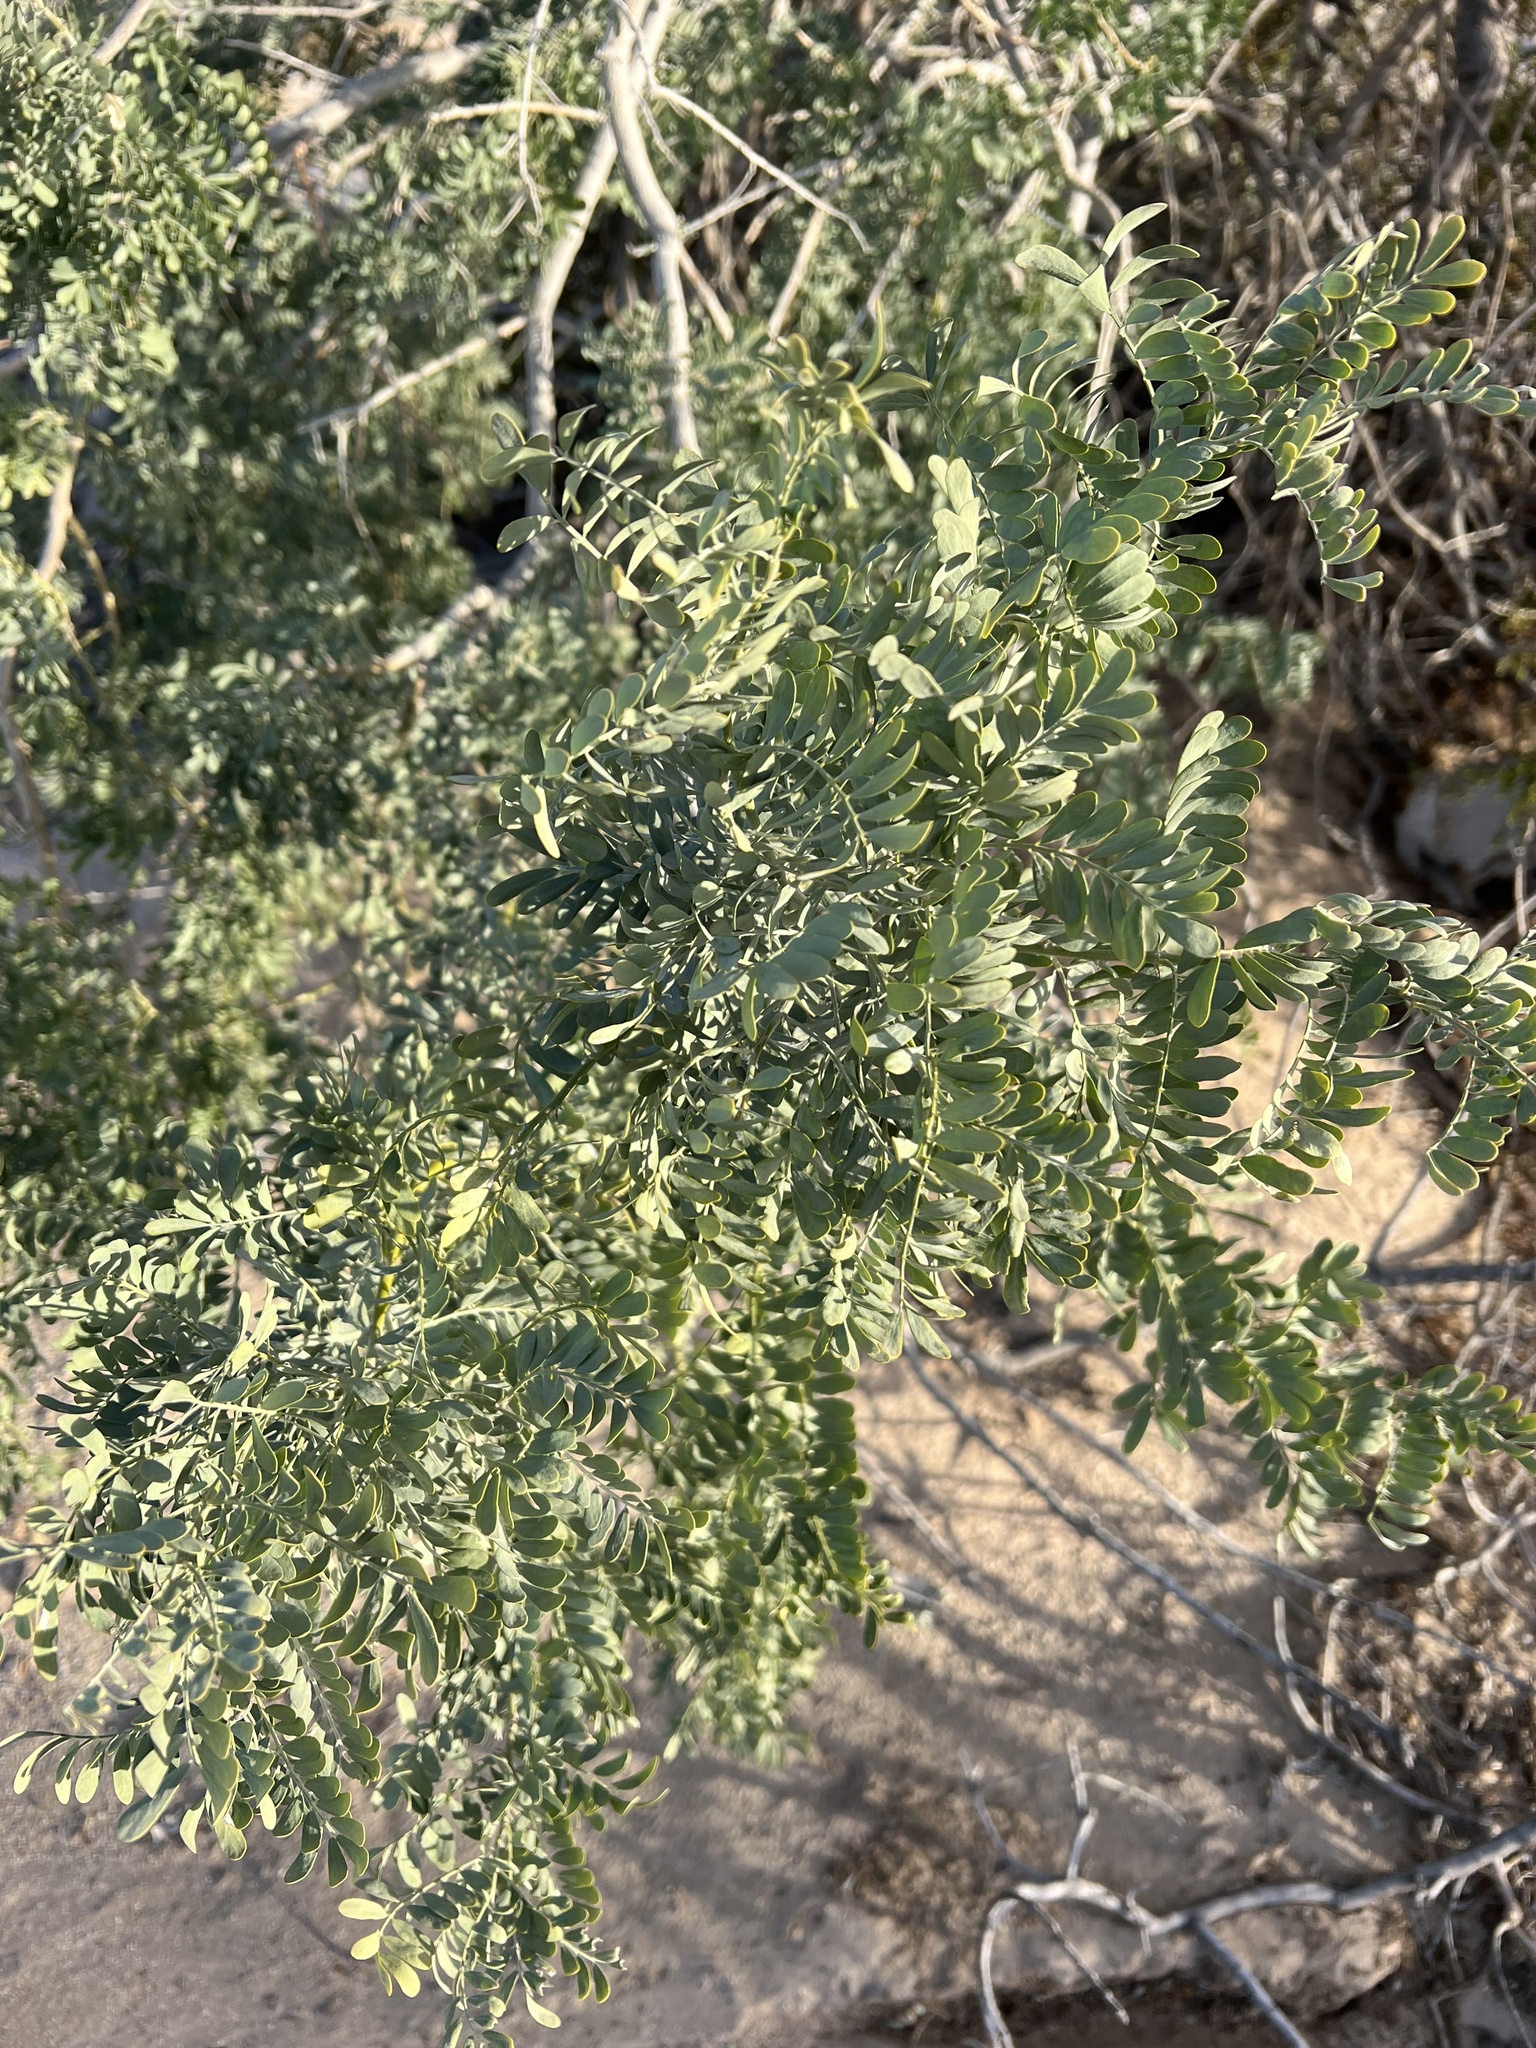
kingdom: Plantae
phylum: Tracheophyta
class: Magnoliopsida
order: Fabales
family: Fabaceae
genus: Olneya
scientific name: Olneya tesota
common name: Desert ironwood
